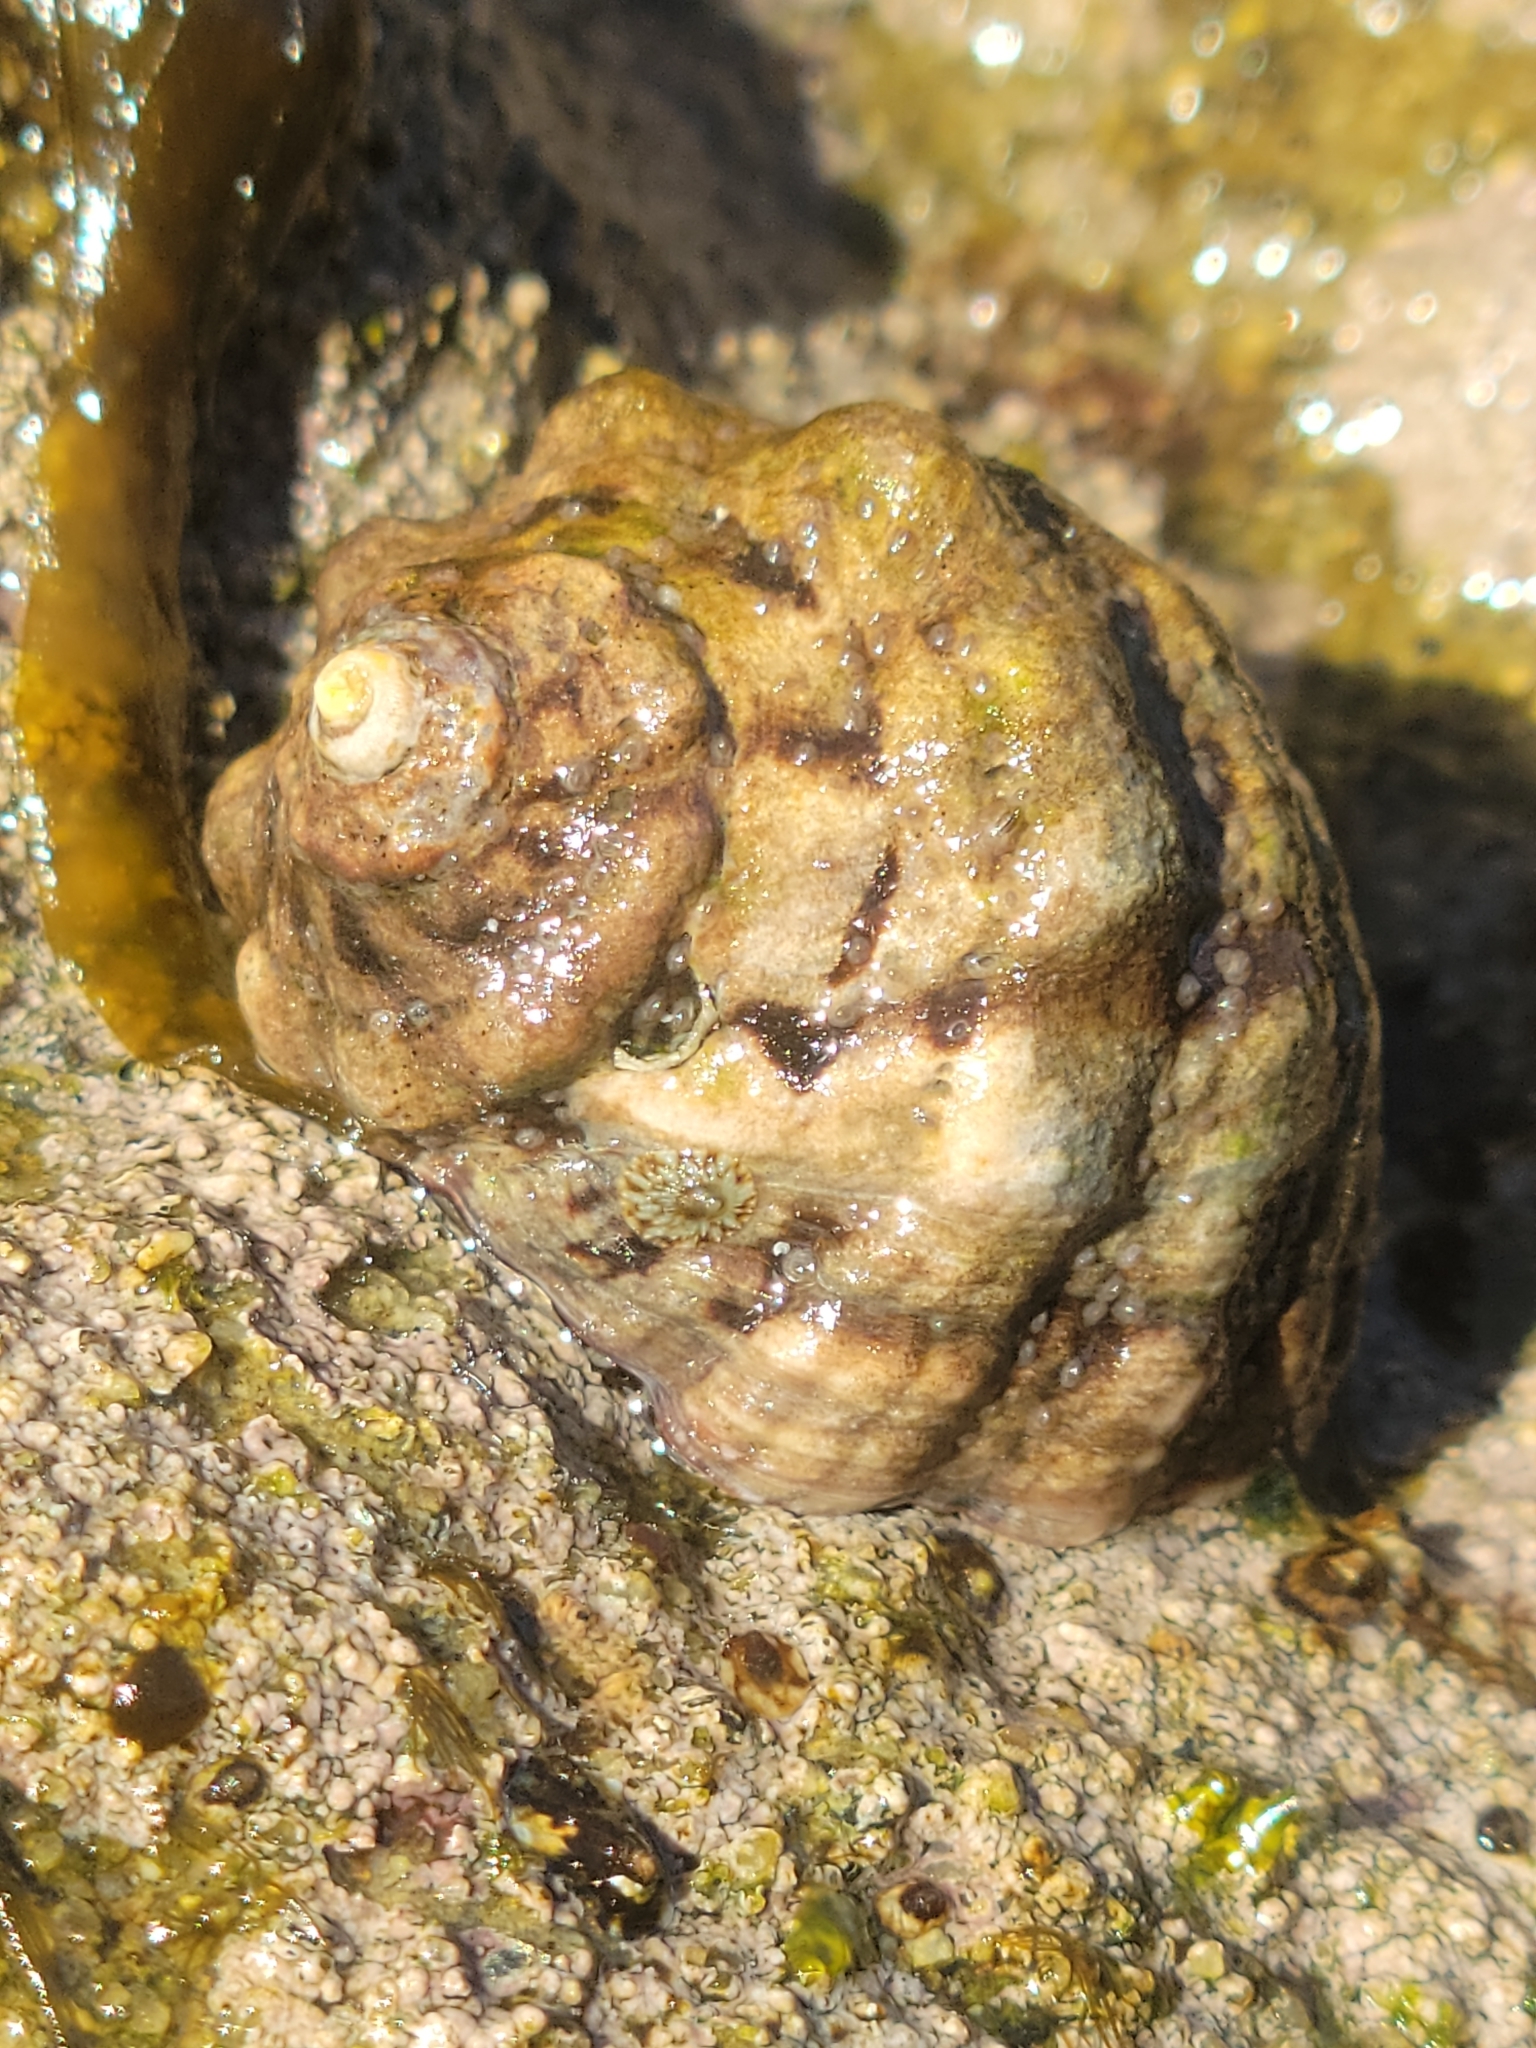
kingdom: Animalia
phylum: Mollusca
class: Gastropoda
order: Neogastropoda
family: Muricidae
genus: Mexacanthina
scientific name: Mexacanthina lugubris
